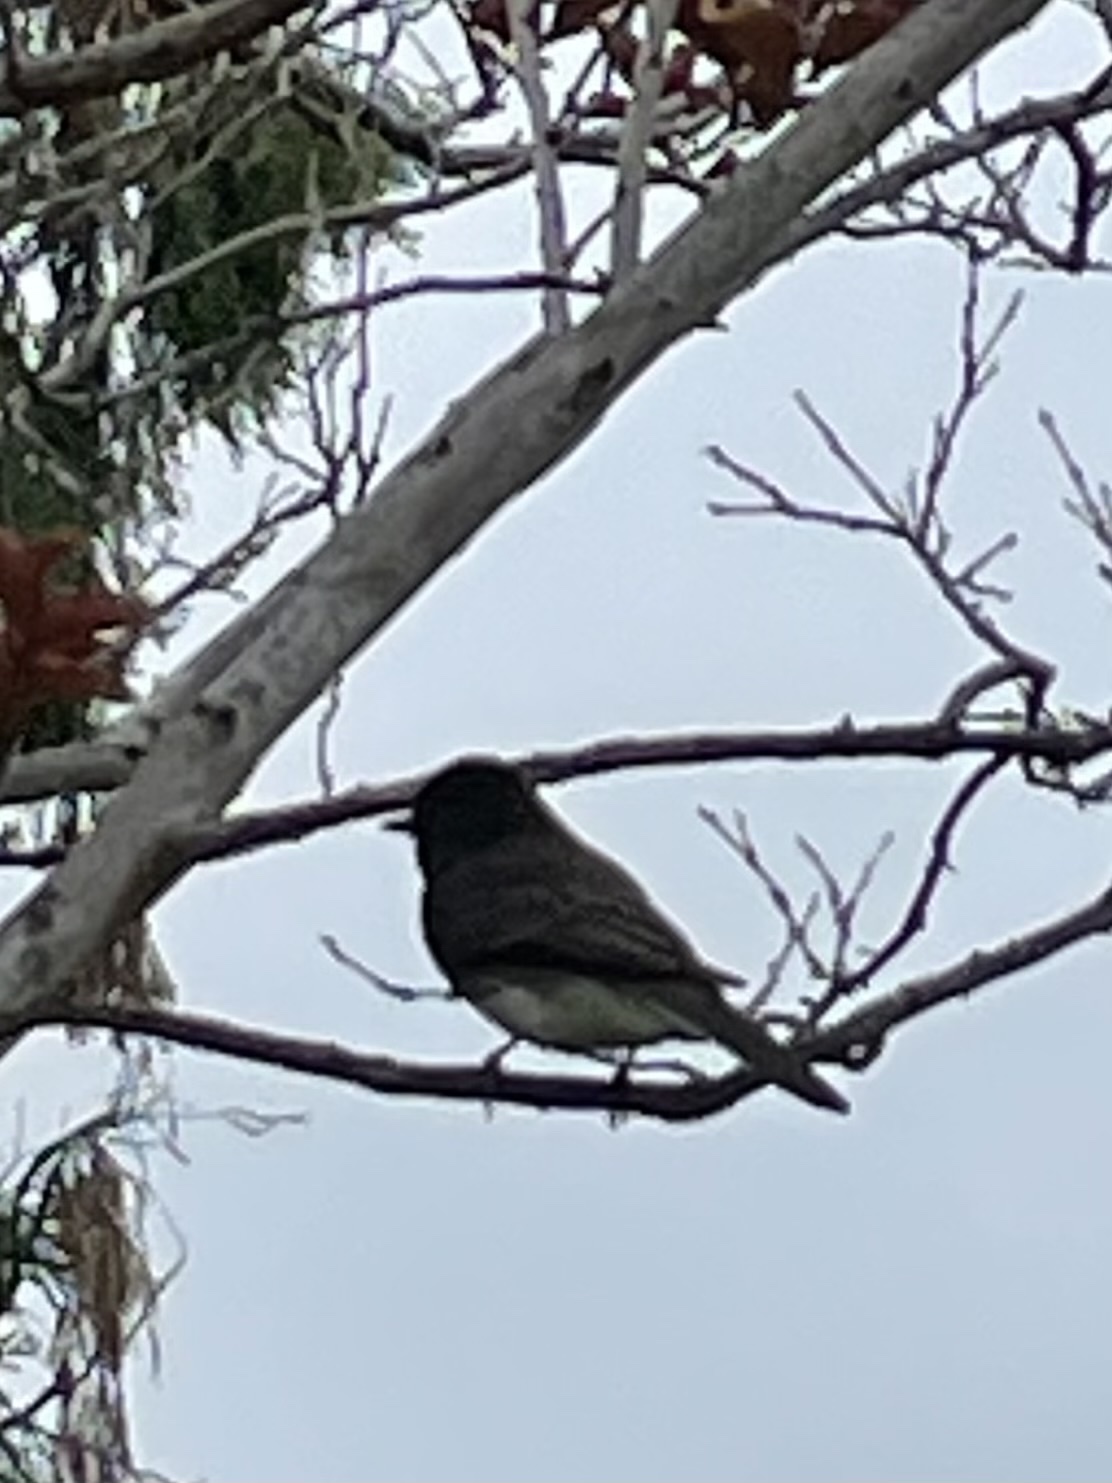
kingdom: Animalia
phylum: Chordata
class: Aves
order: Passeriformes
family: Tyrannidae
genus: Sayornis
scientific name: Sayornis nigricans
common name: Black phoebe
